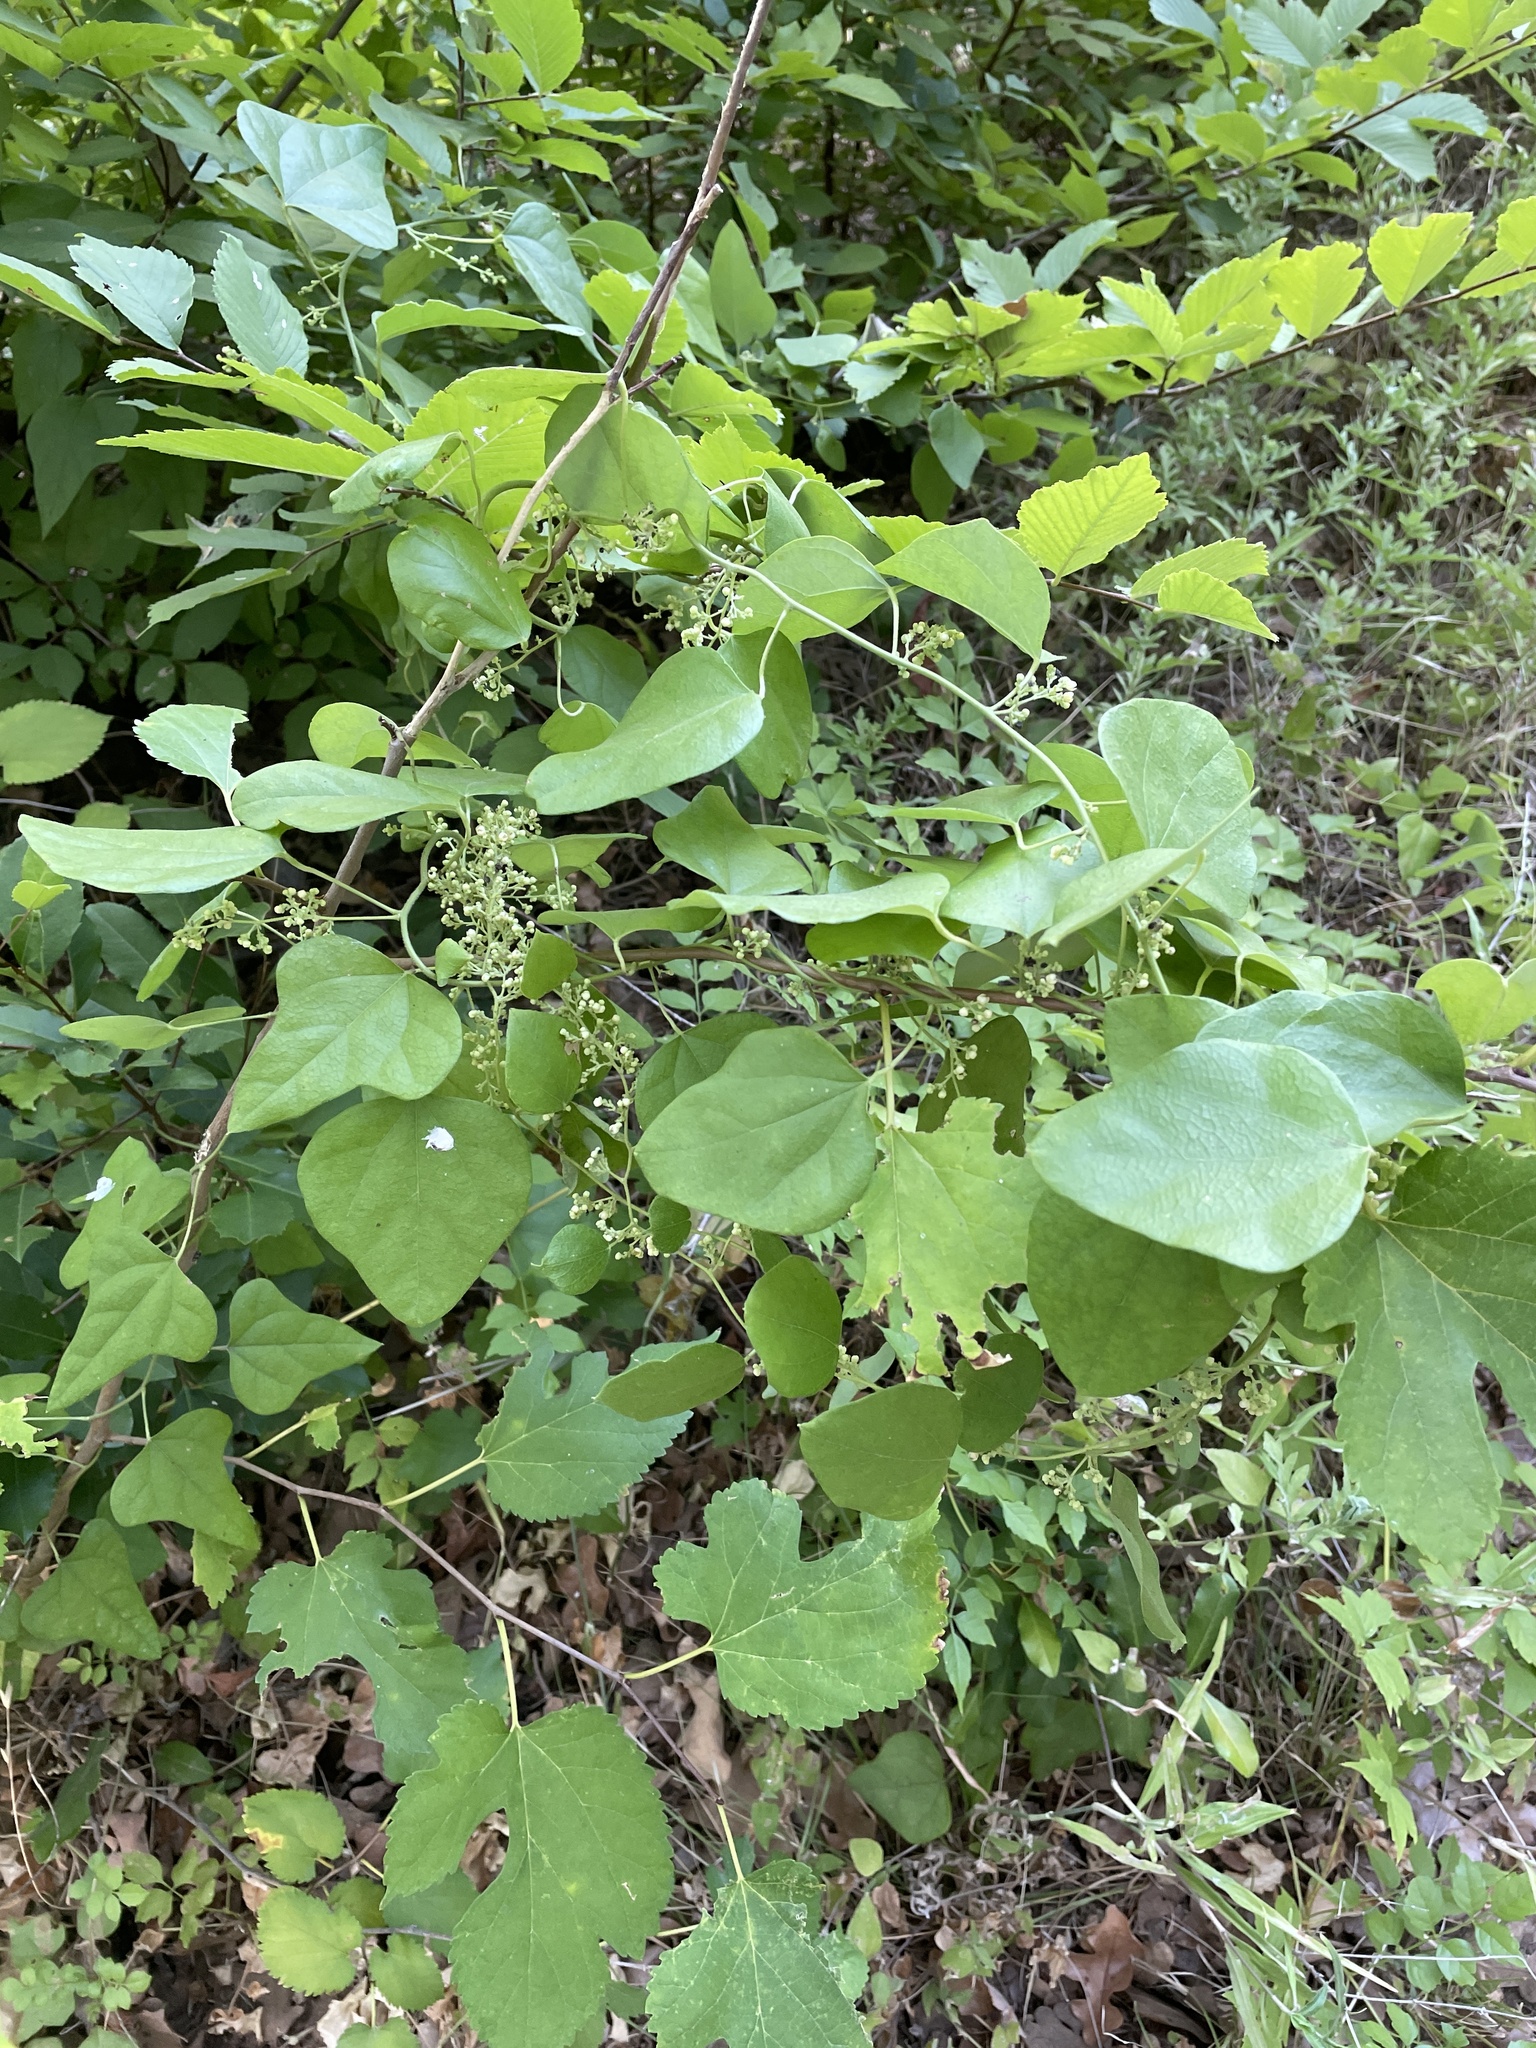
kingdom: Plantae
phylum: Tracheophyta
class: Magnoliopsida
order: Ranunculales
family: Menispermaceae
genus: Cocculus
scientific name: Cocculus carolinus
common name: Carolina moonseed
